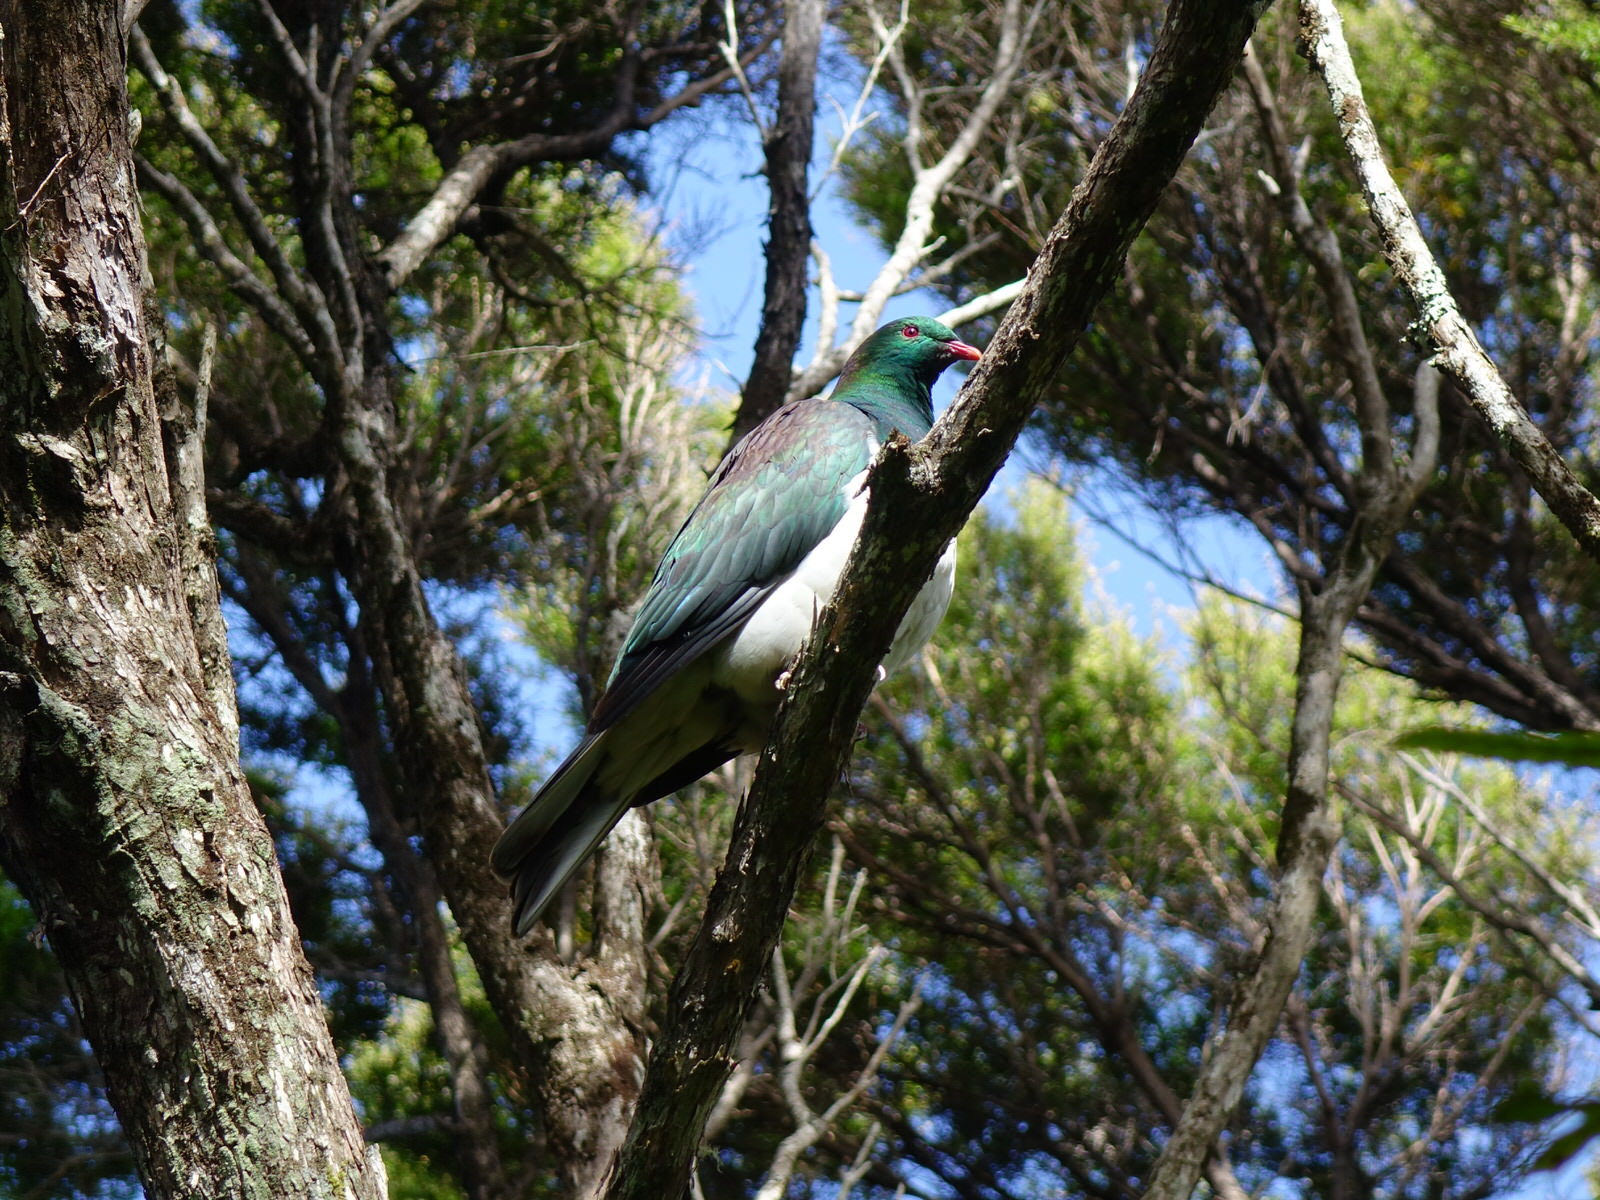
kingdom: Animalia
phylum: Chordata
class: Aves
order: Columbiformes
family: Columbidae
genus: Hemiphaga
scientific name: Hemiphaga novaeseelandiae
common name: New zealand pigeon
